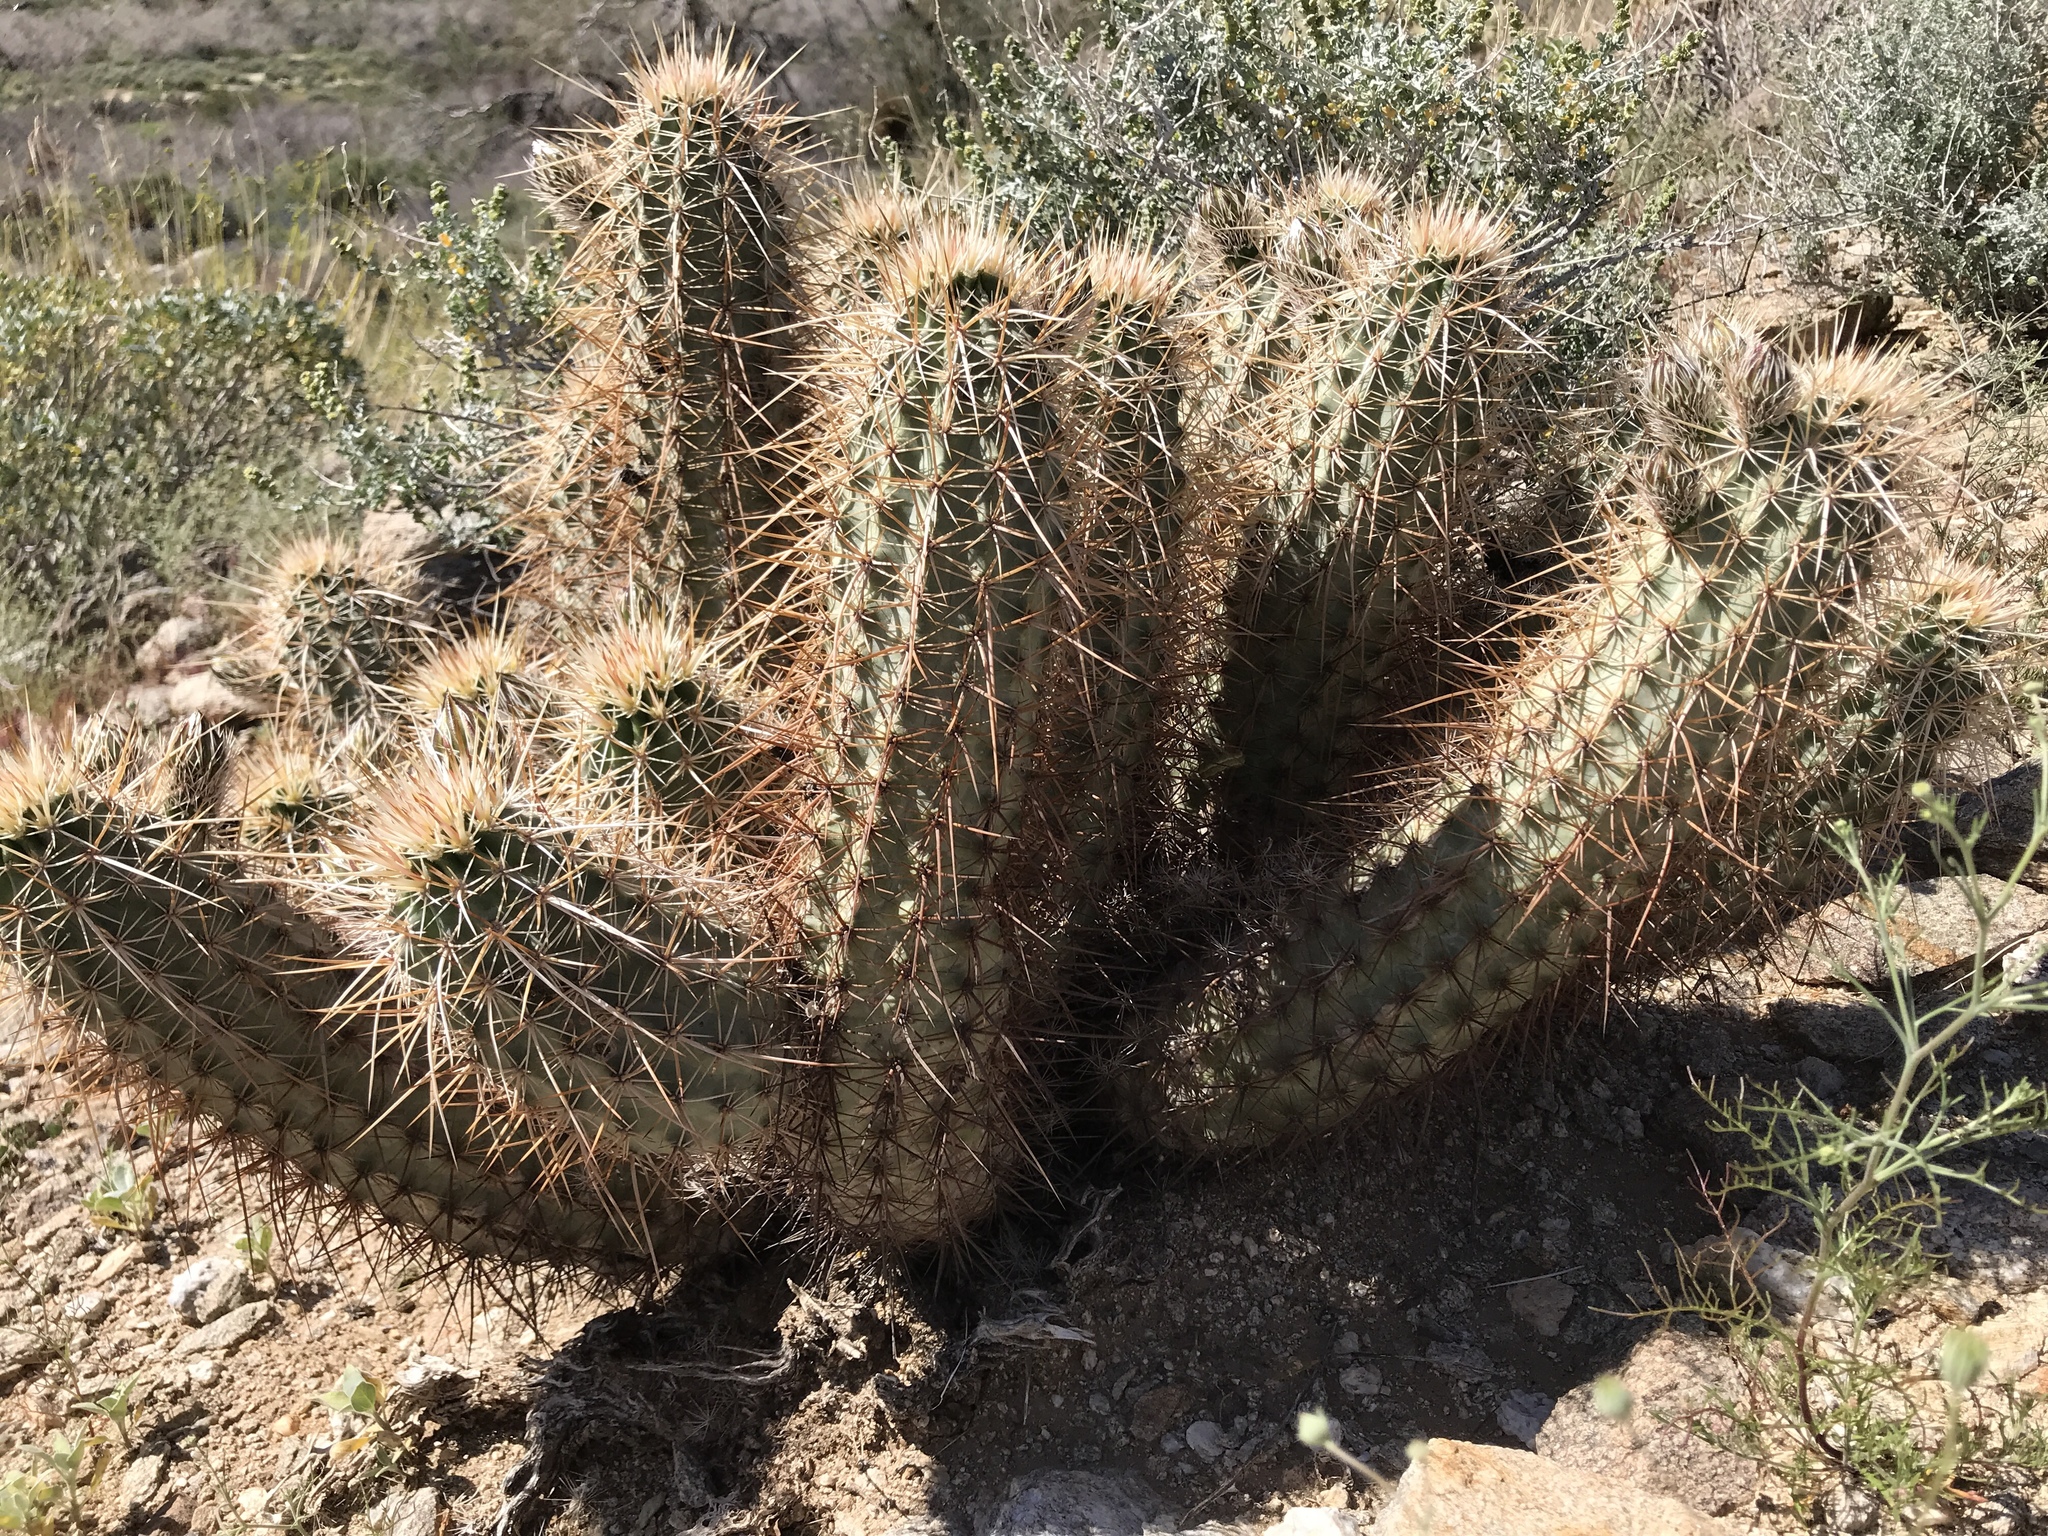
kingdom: Plantae
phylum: Tracheophyta
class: Magnoliopsida
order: Caryophyllales
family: Cactaceae
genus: Echinocereus
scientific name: Echinocereus engelmannii
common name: Engelmann's hedgehog cactus
